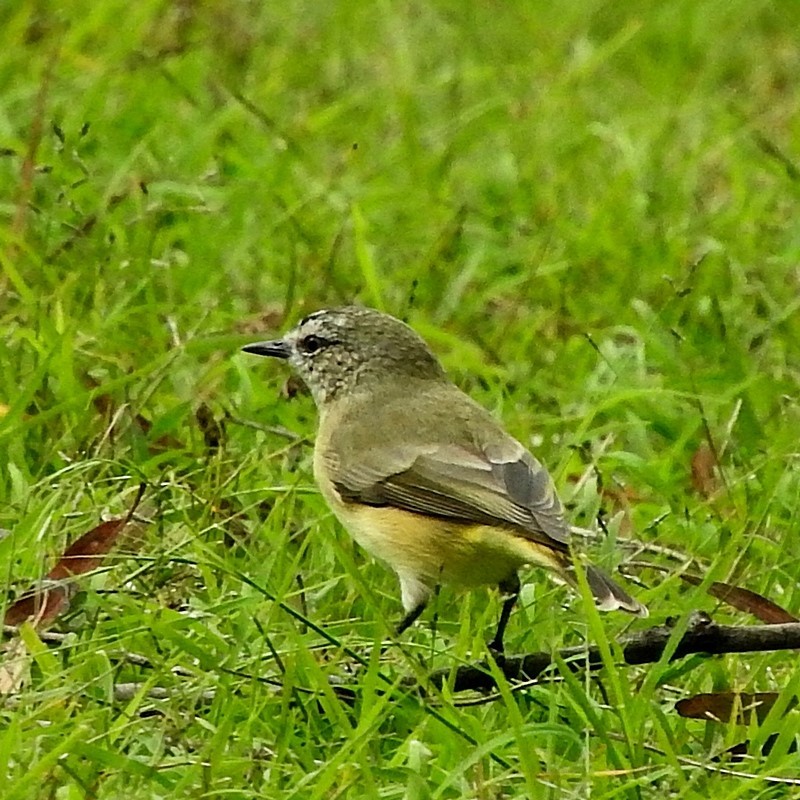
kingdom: Animalia
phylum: Chordata
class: Aves
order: Passeriformes
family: Acanthizidae
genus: Acanthiza
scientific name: Acanthiza chrysorrhoa
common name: Yellow-rumped thornbill
